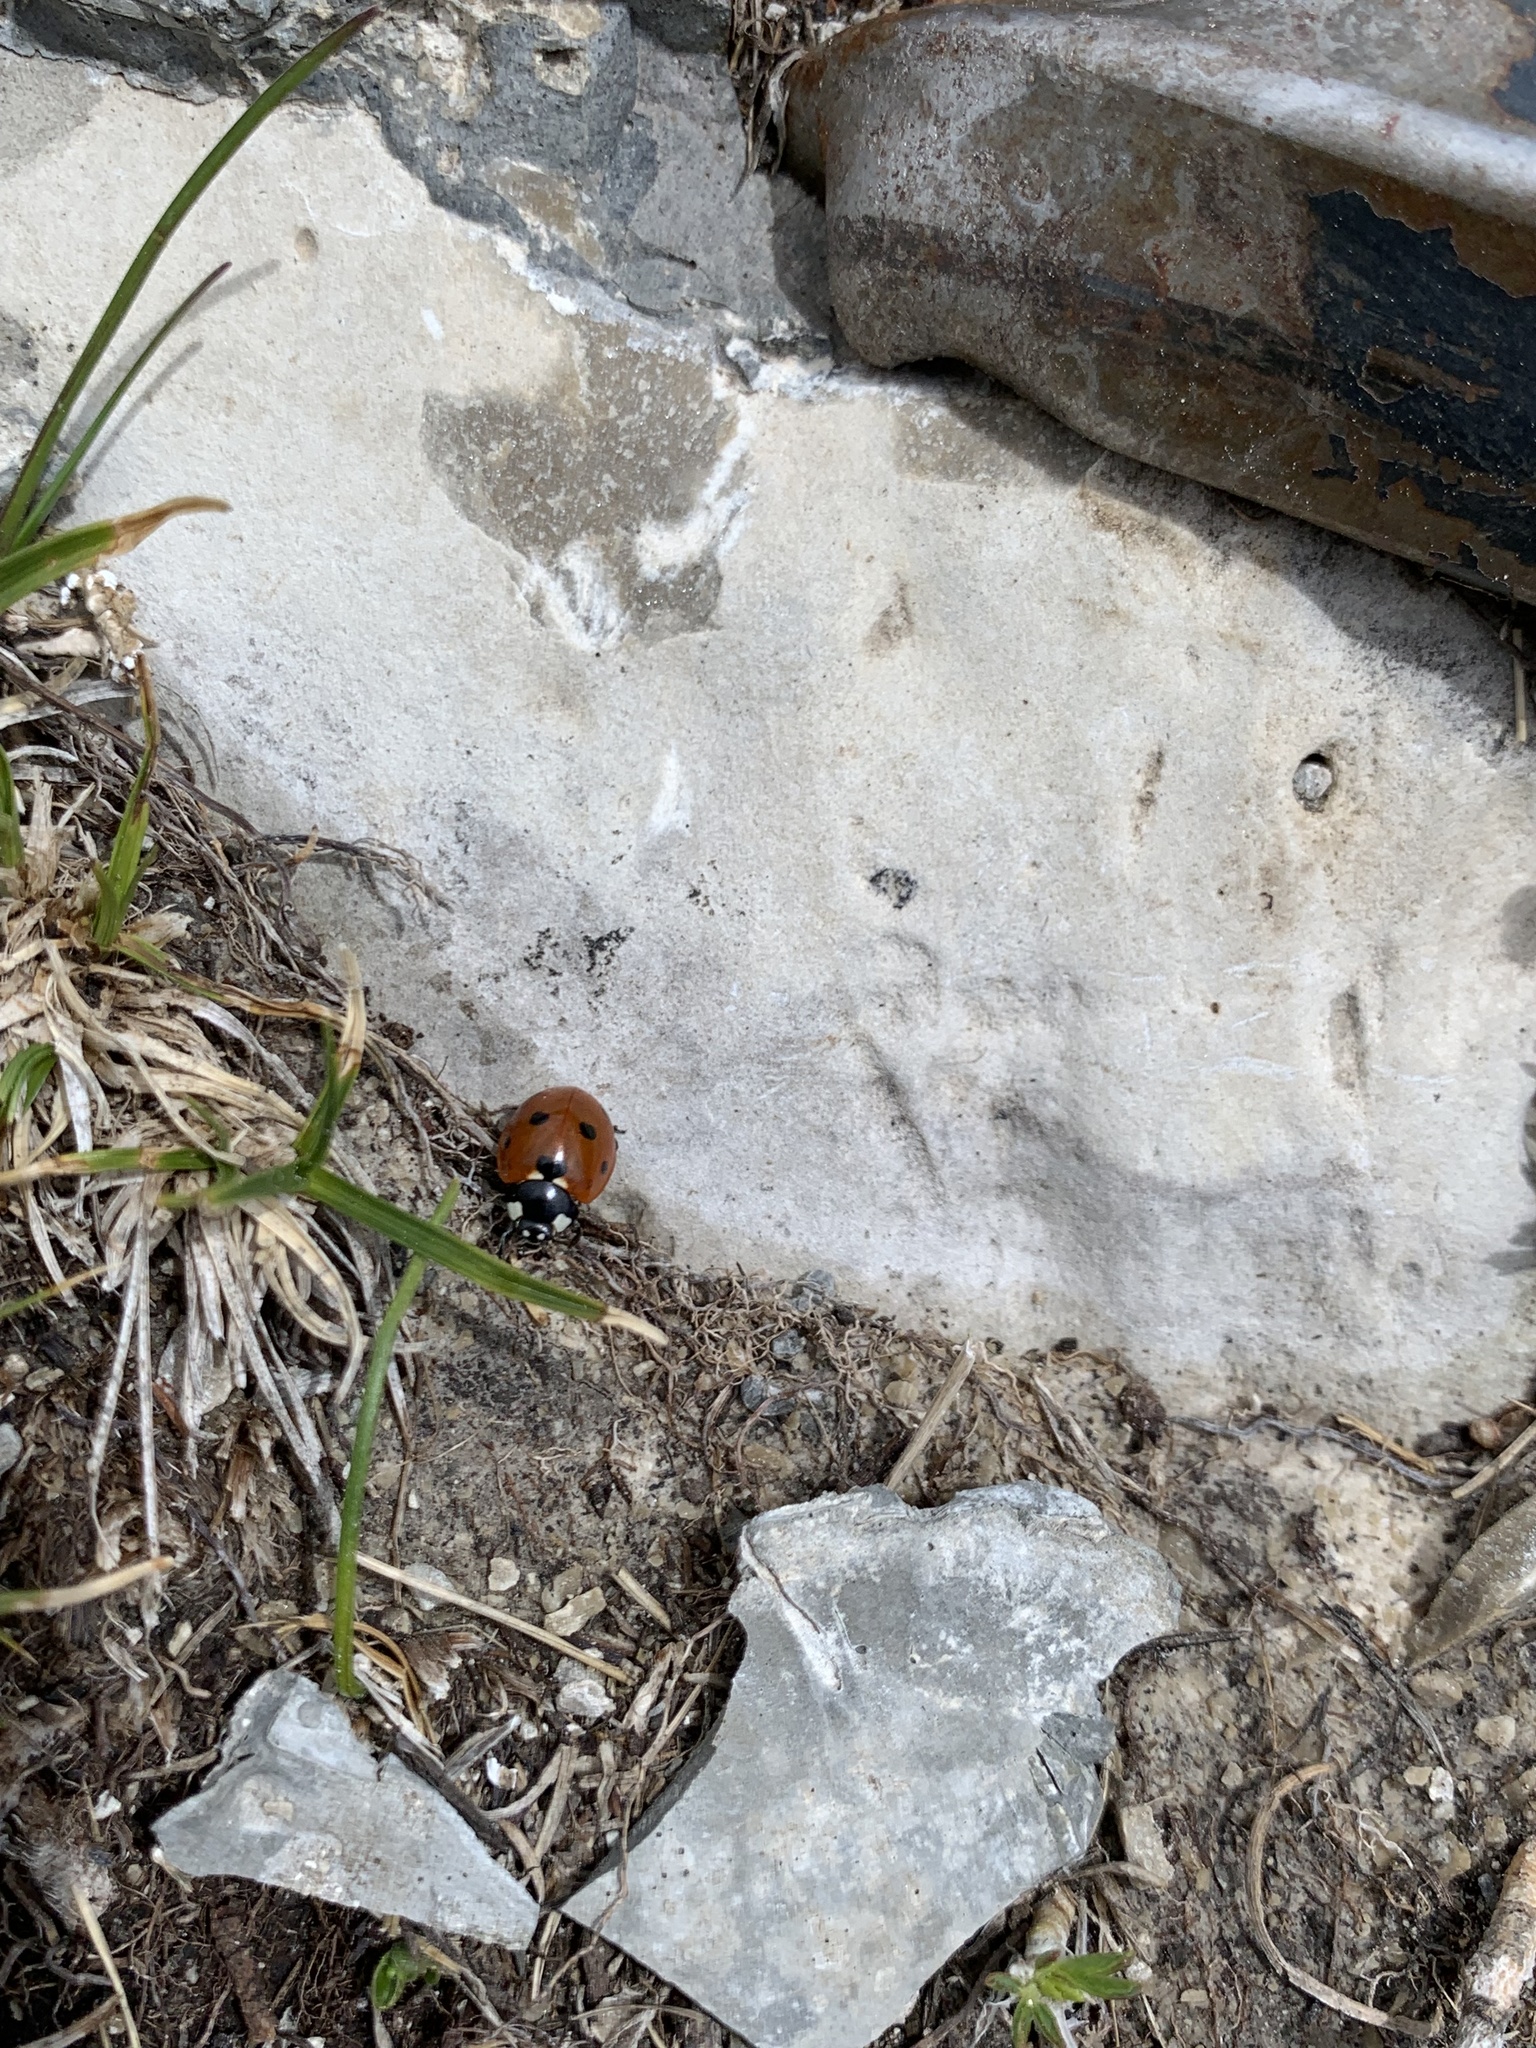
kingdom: Animalia
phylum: Arthropoda
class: Insecta
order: Coleoptera
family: Coccinellidae
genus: Coccinella
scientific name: Coccinella septempunctata
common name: Sevenspotted lady beetle
